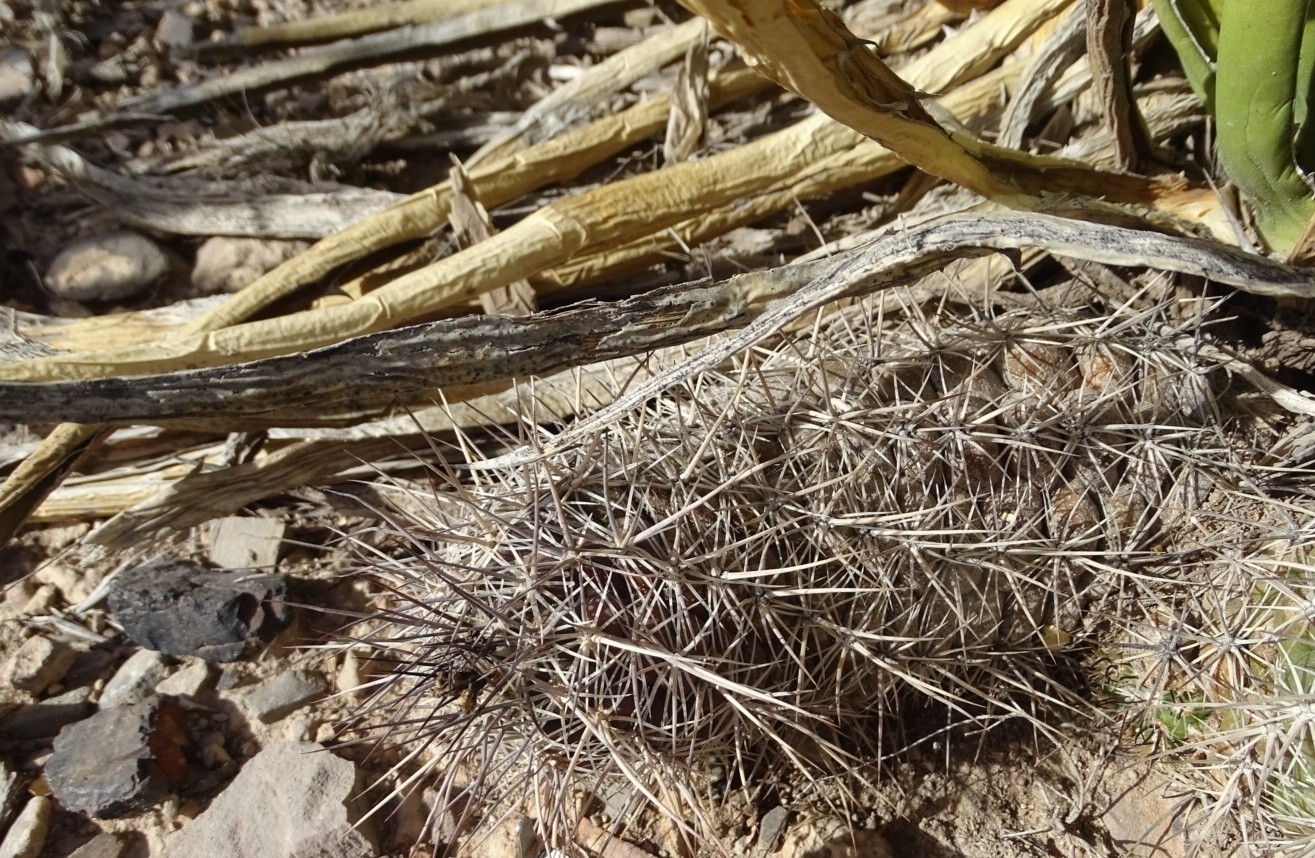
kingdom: Plantae
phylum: Tracheophyta
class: Magnoliopsida
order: Caryophyllales
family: Cactaceae
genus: Thelocactus
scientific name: Thelocactus bicolor
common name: Glory of texas
